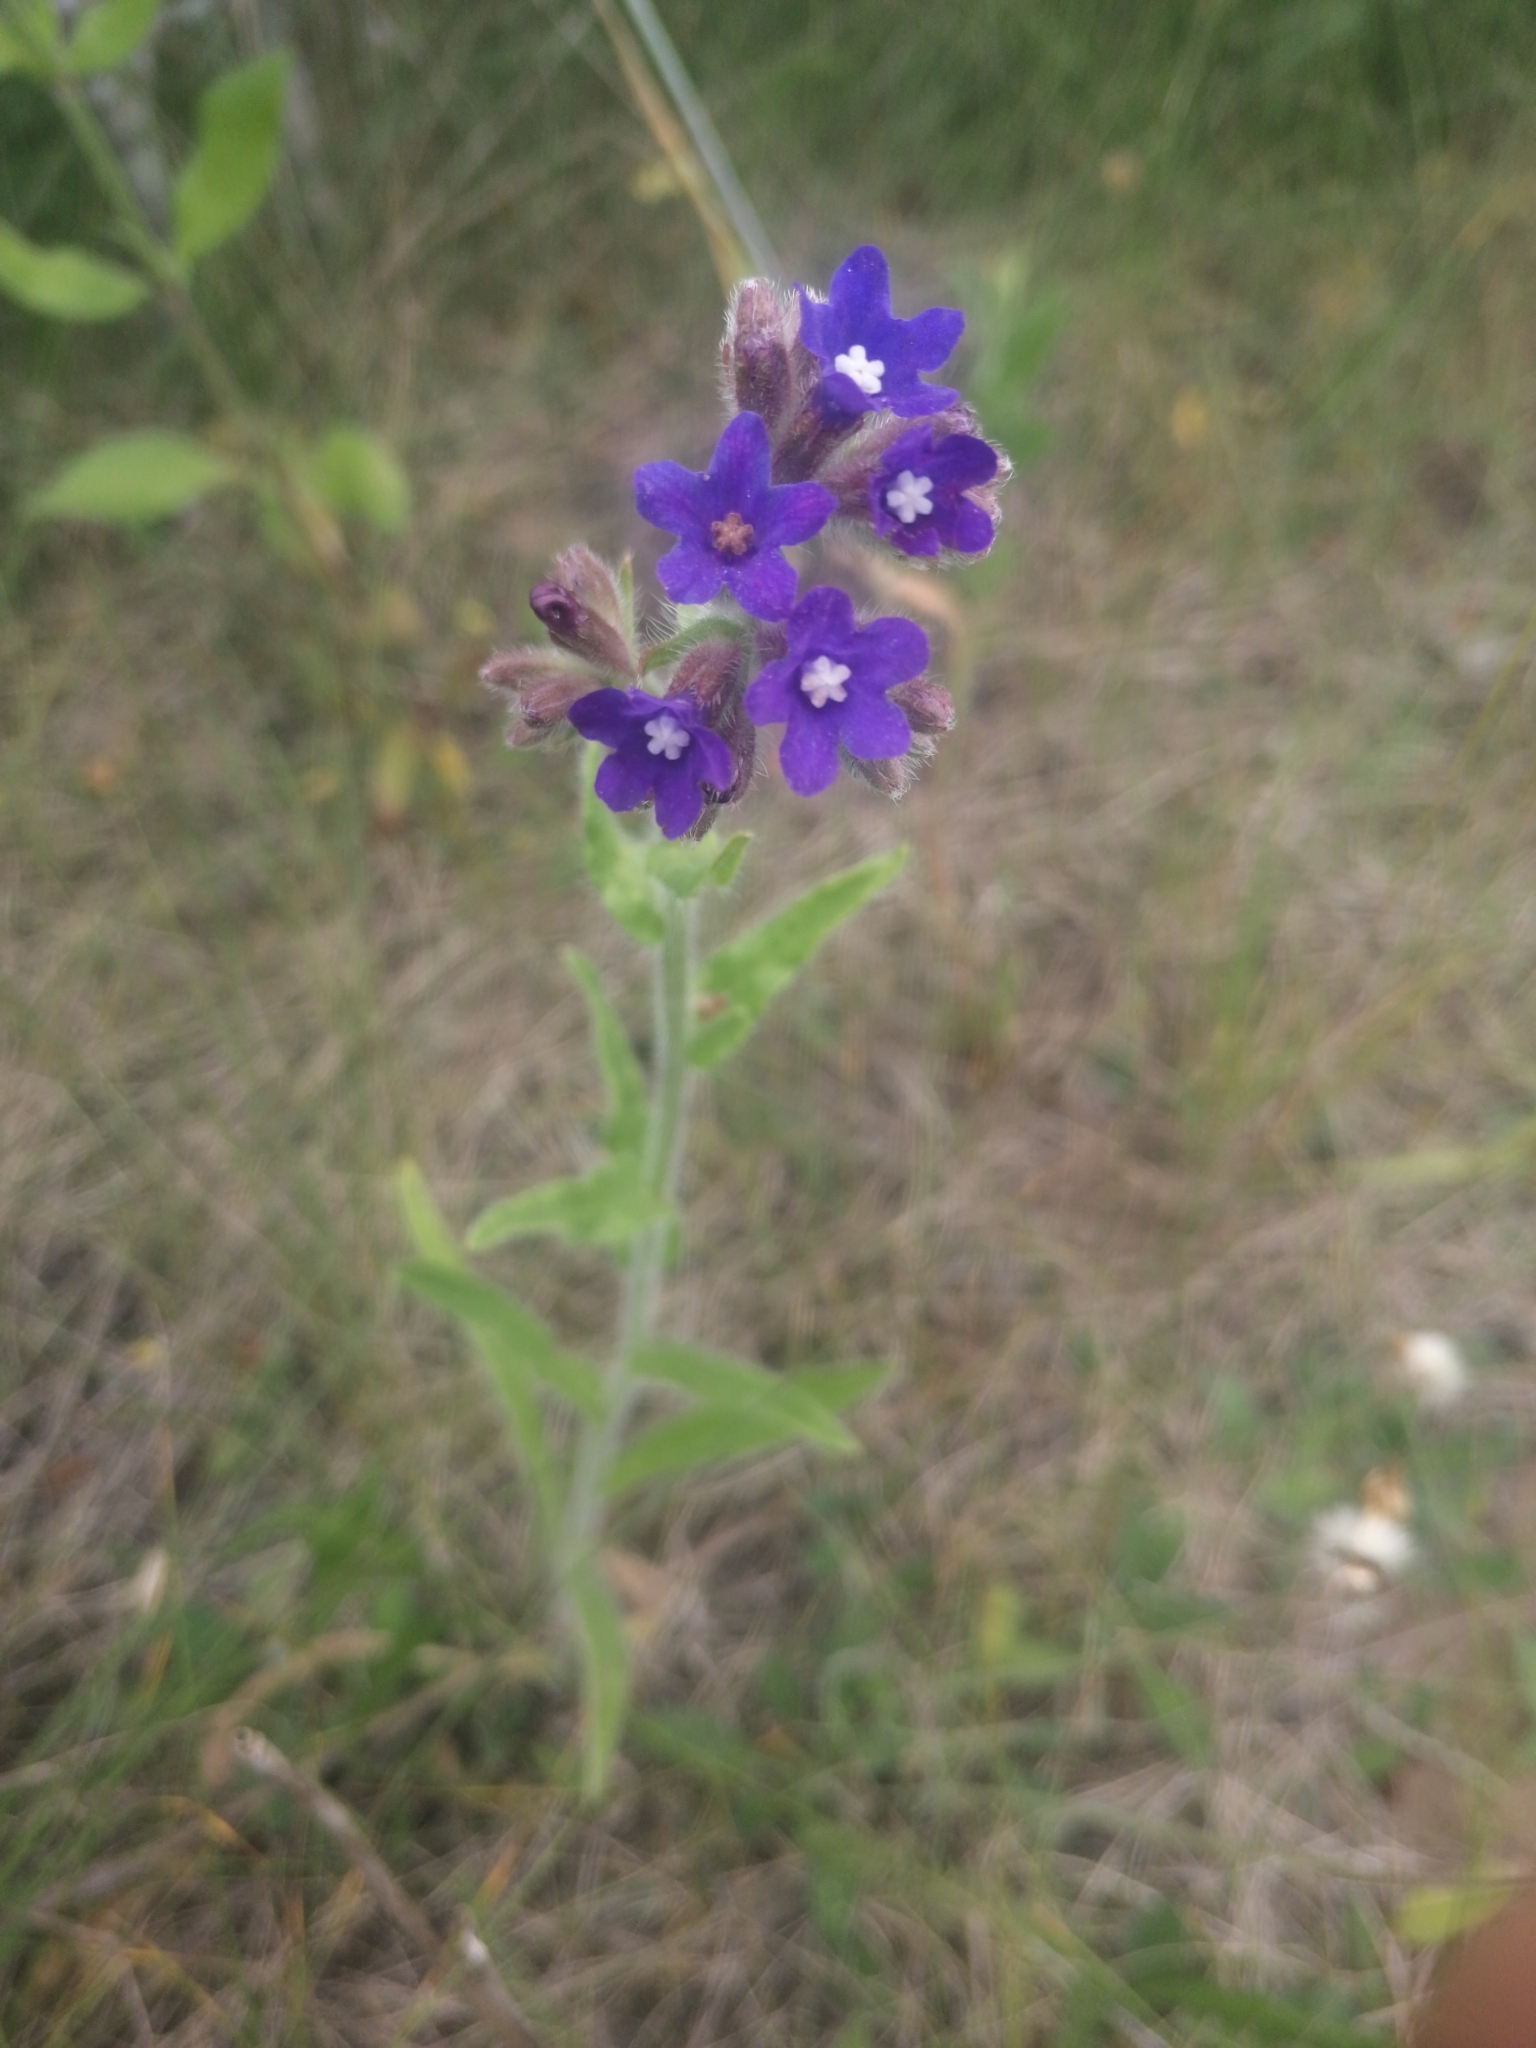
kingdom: Plantae
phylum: Tracheophyta
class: Magnoliopsida
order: Boraginales
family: Boraginaceae
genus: Anchusa
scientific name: Anchusa officinalis
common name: Alkanet
